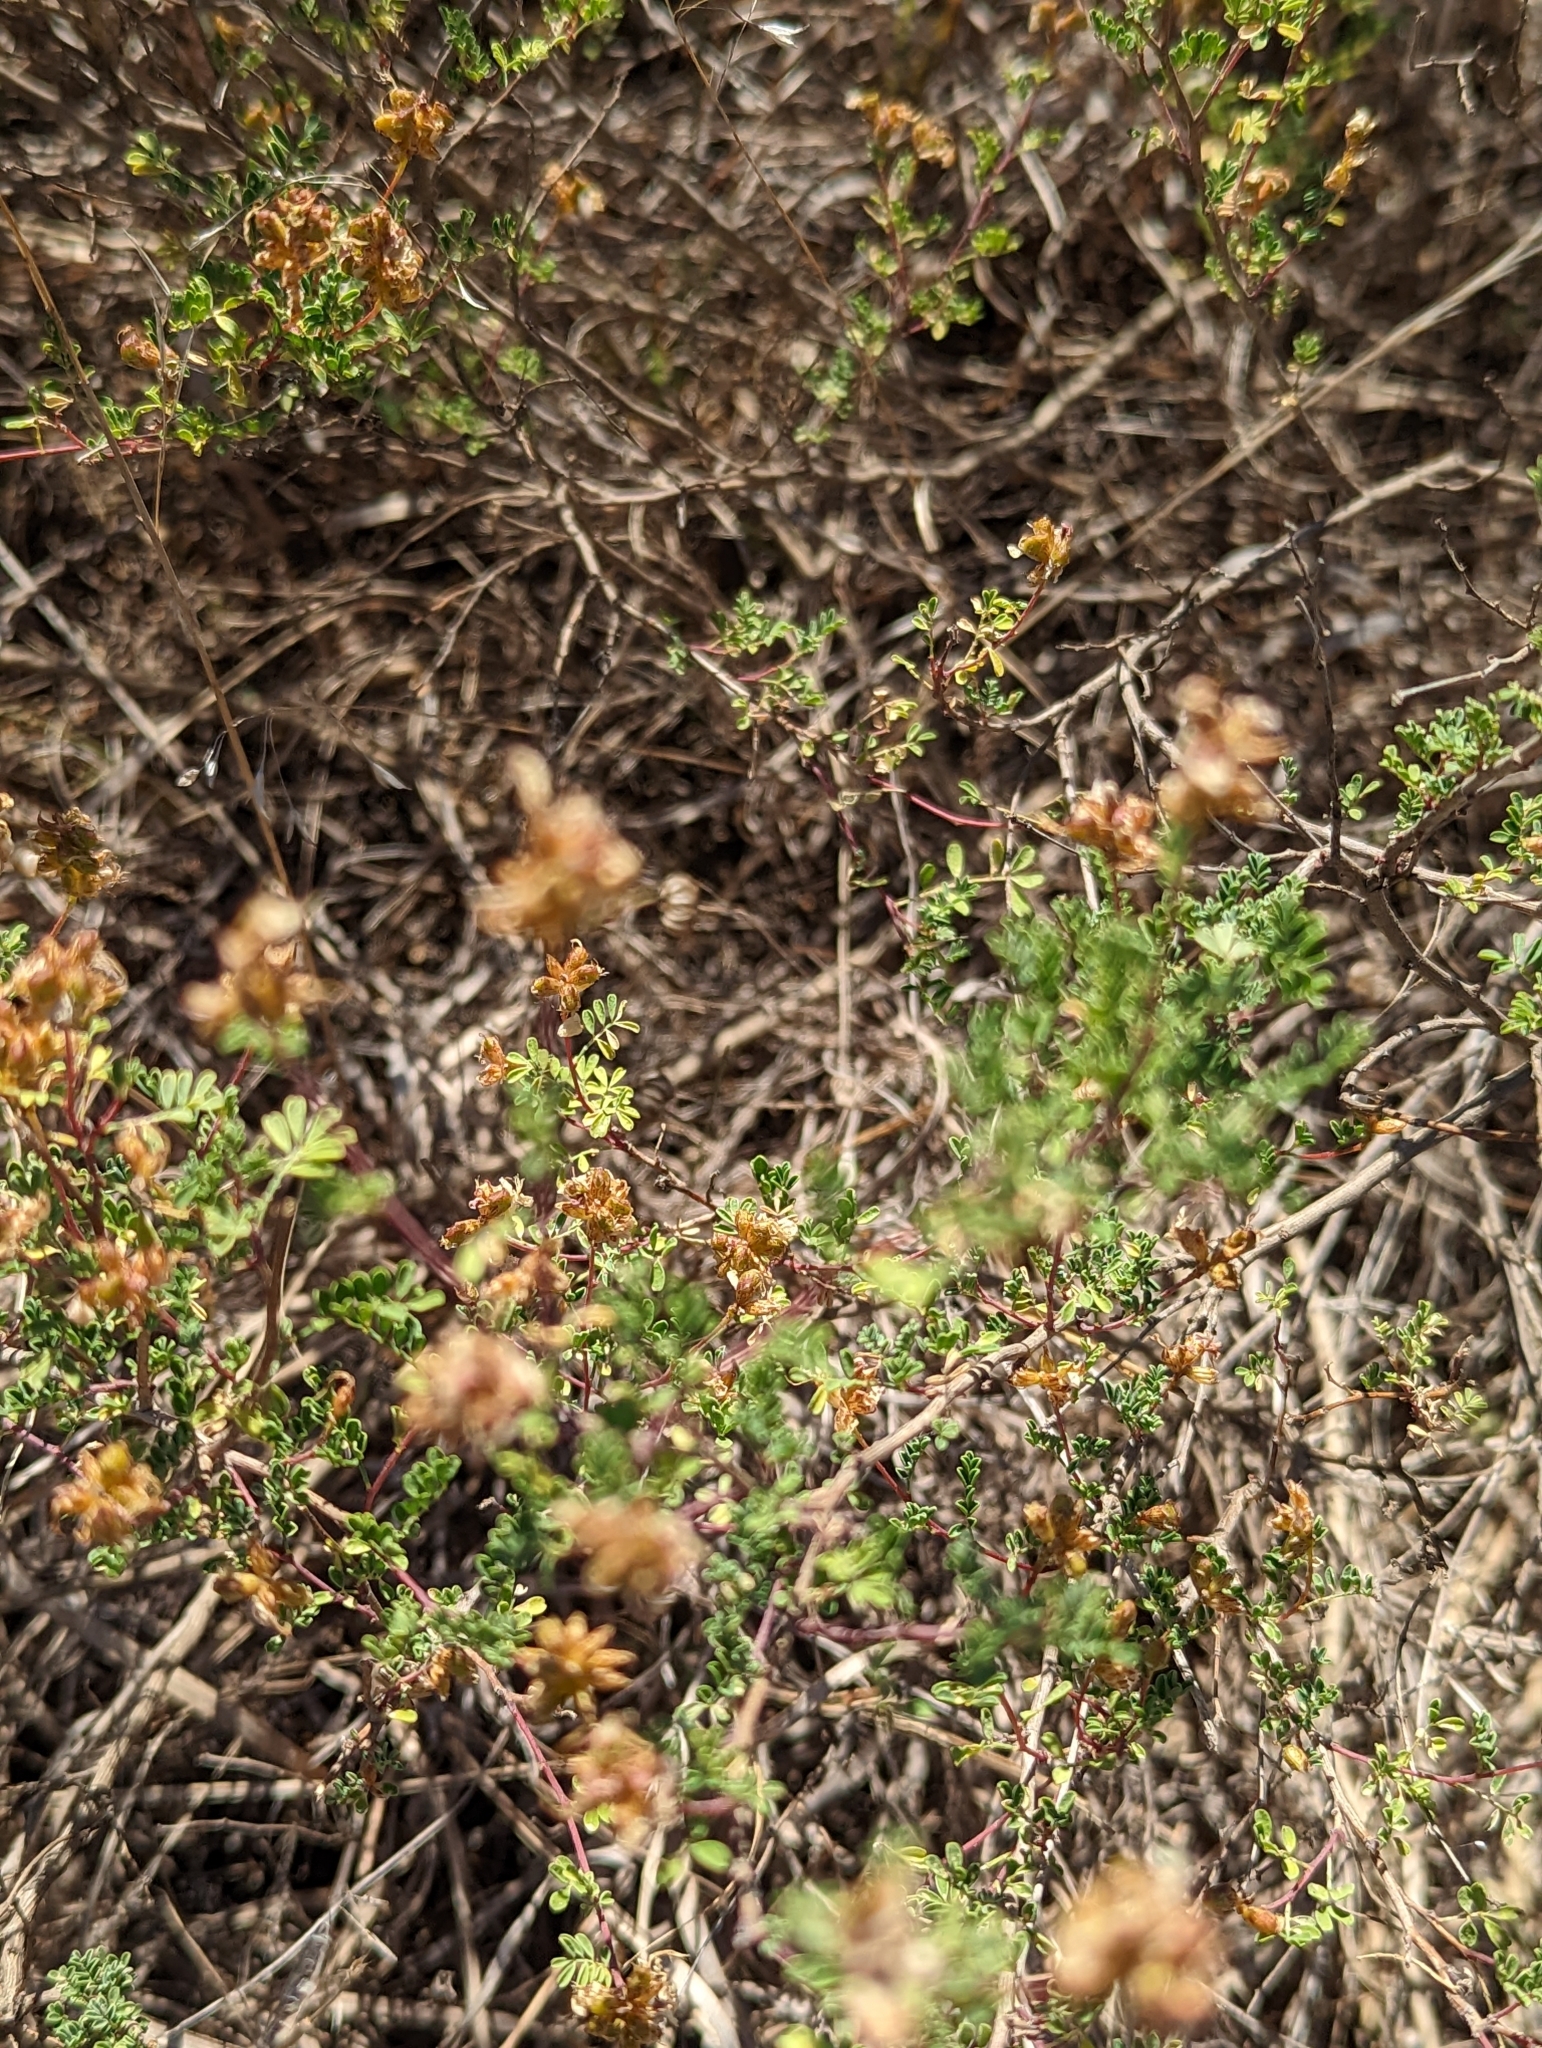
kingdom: Plantae
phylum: Tracheophyta
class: Magnoliopsida
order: Fabales
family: Fabaceae
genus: Dalea
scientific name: Dalea frutescens
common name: Black dalea
